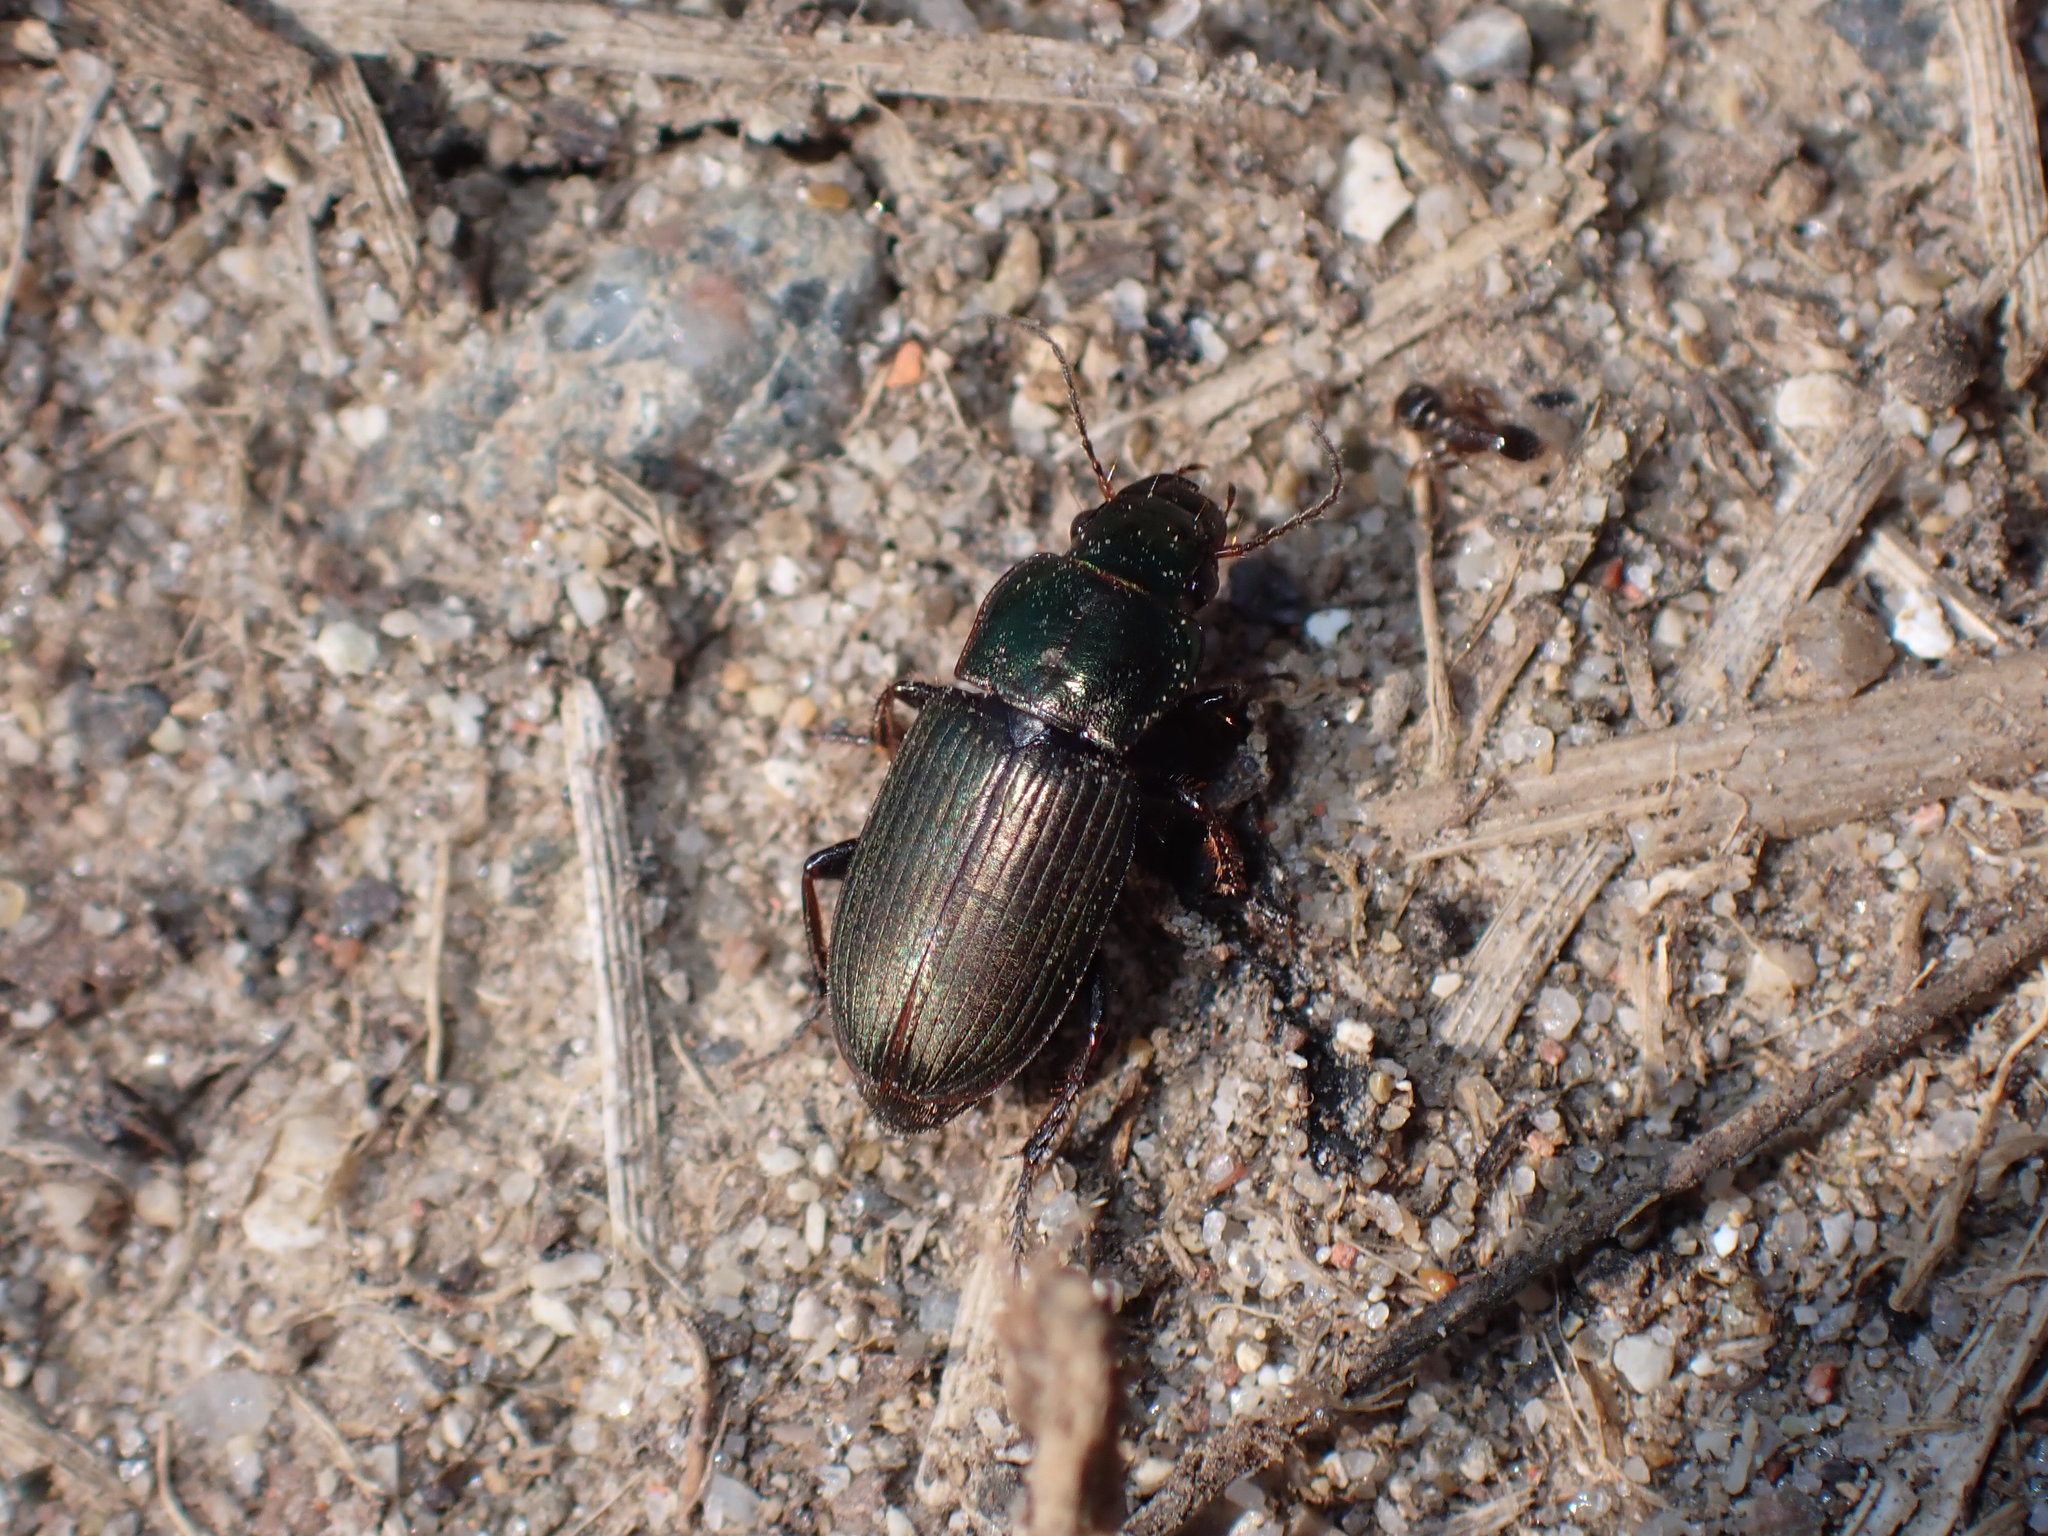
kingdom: Animalia
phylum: Arthropoda
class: Insecta
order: Coleoptera
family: Carabidae
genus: Harpalus
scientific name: Harpalus distinguendus
